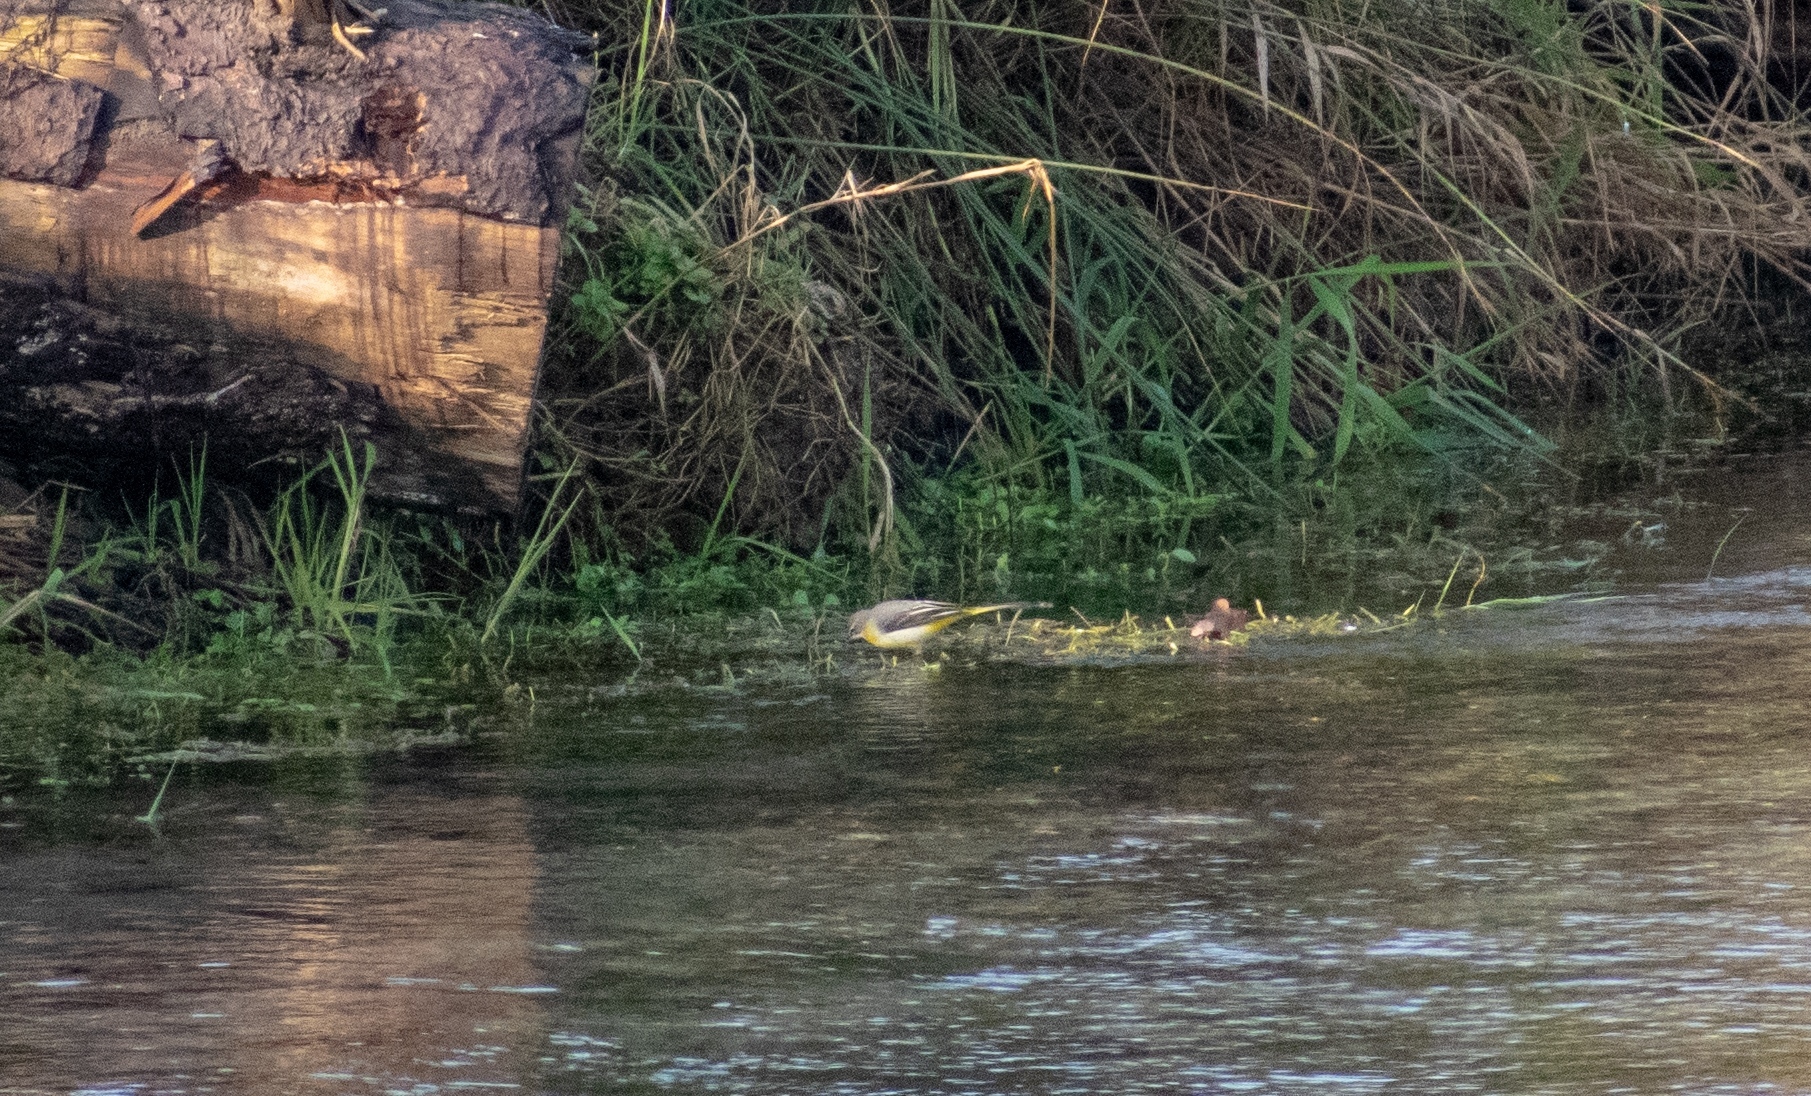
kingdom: Animalia
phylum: Chordata
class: Aves
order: Passeriformes
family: Motacillidae
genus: Motacilla
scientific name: Motacilla cinerea
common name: Grey wagtail
